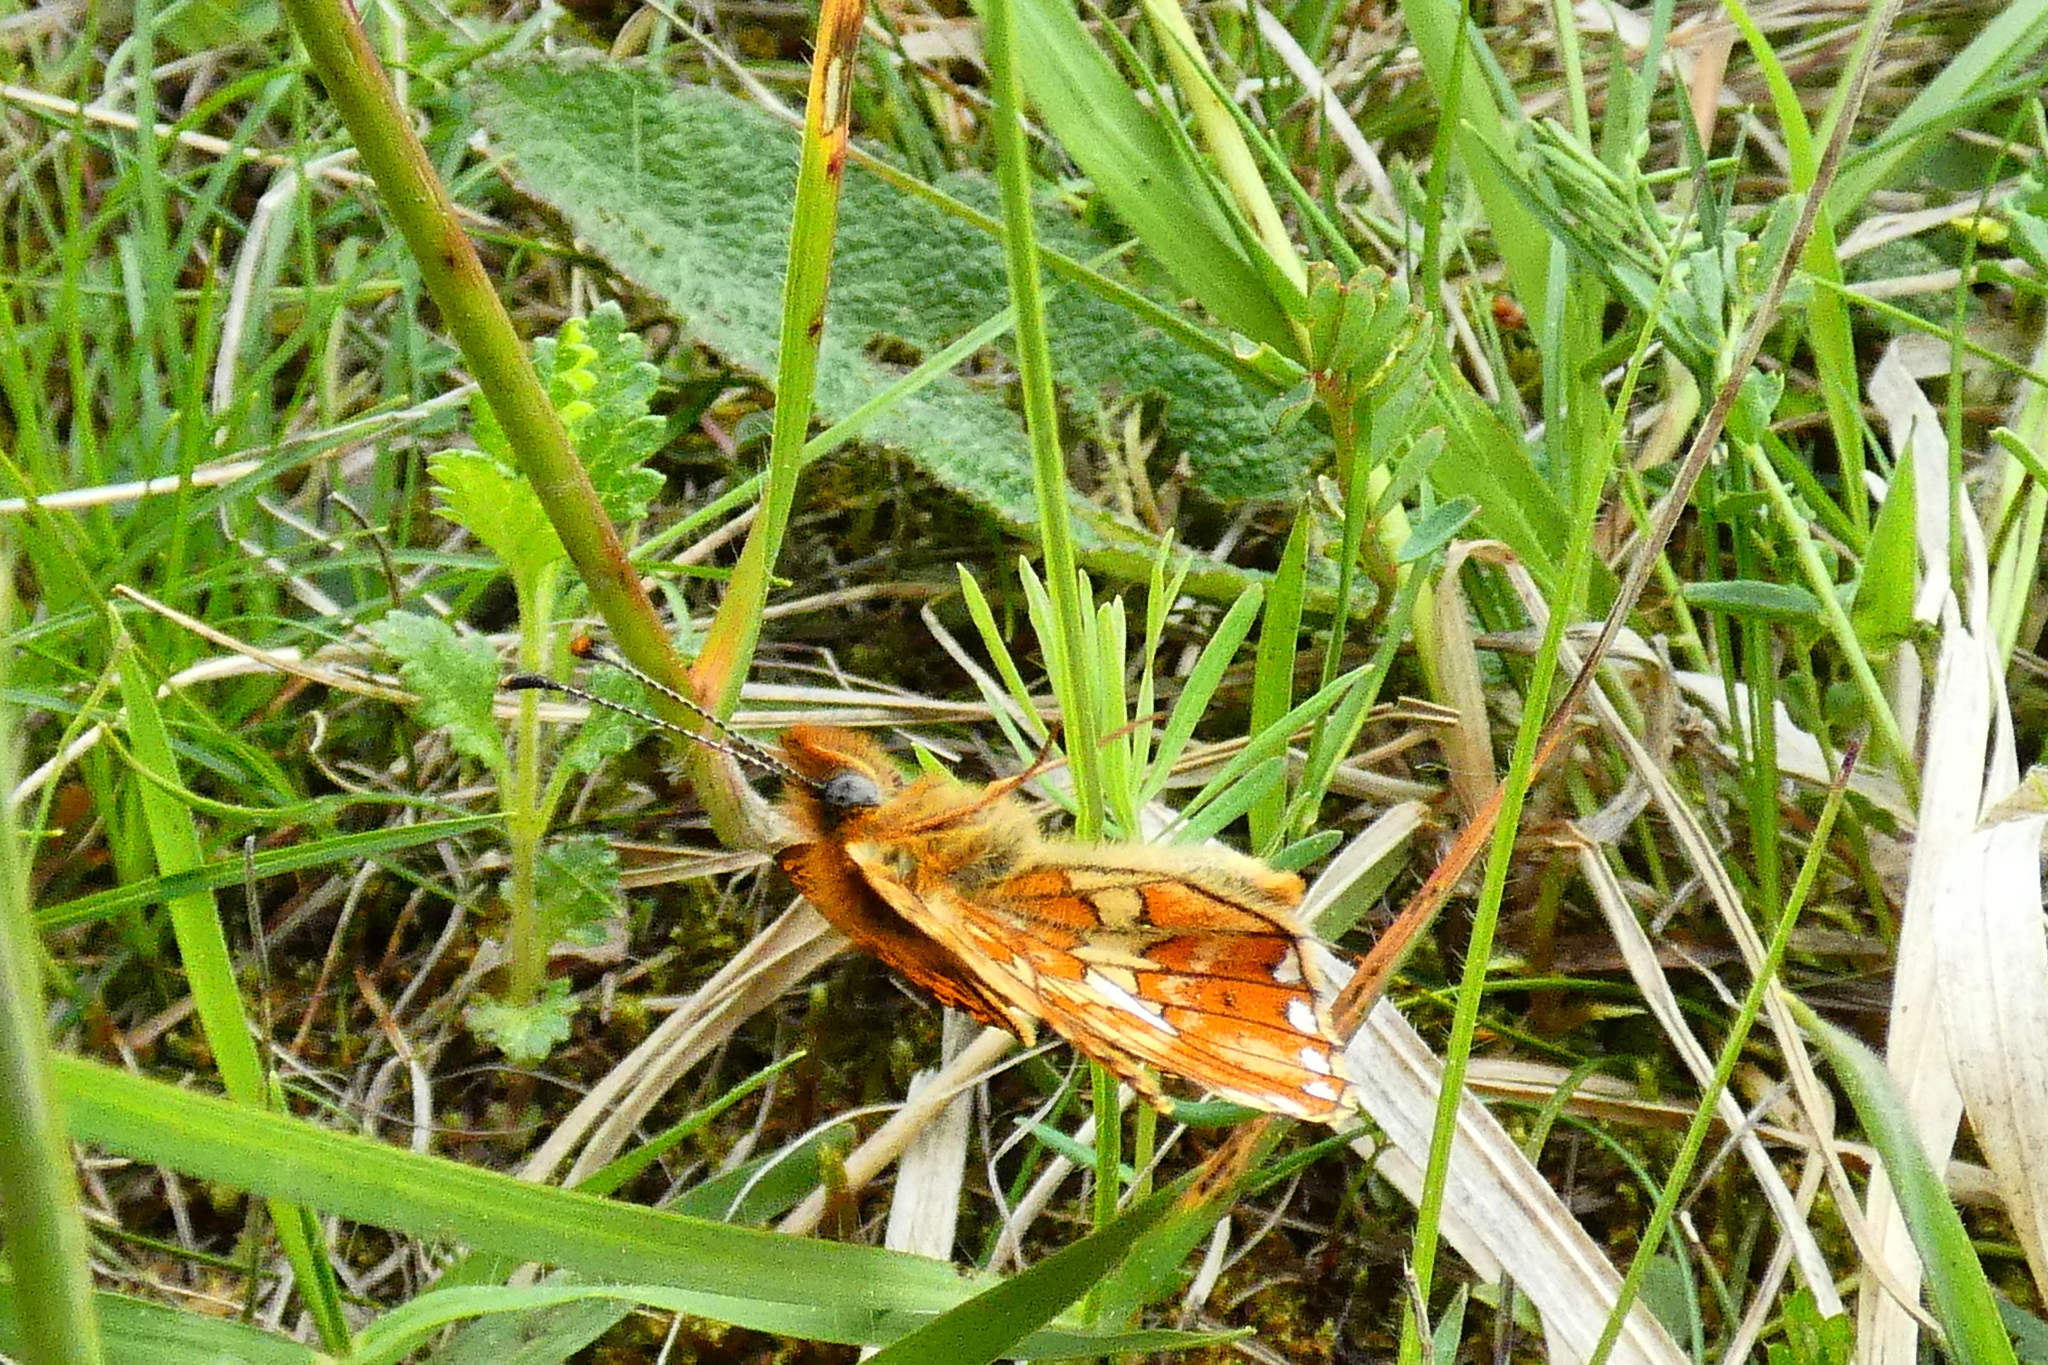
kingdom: Animalia
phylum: Arthropoda
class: Insecta
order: Lepidoptera
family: Nymphalidae
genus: Clossiana
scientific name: Clossiana euphrosyne
